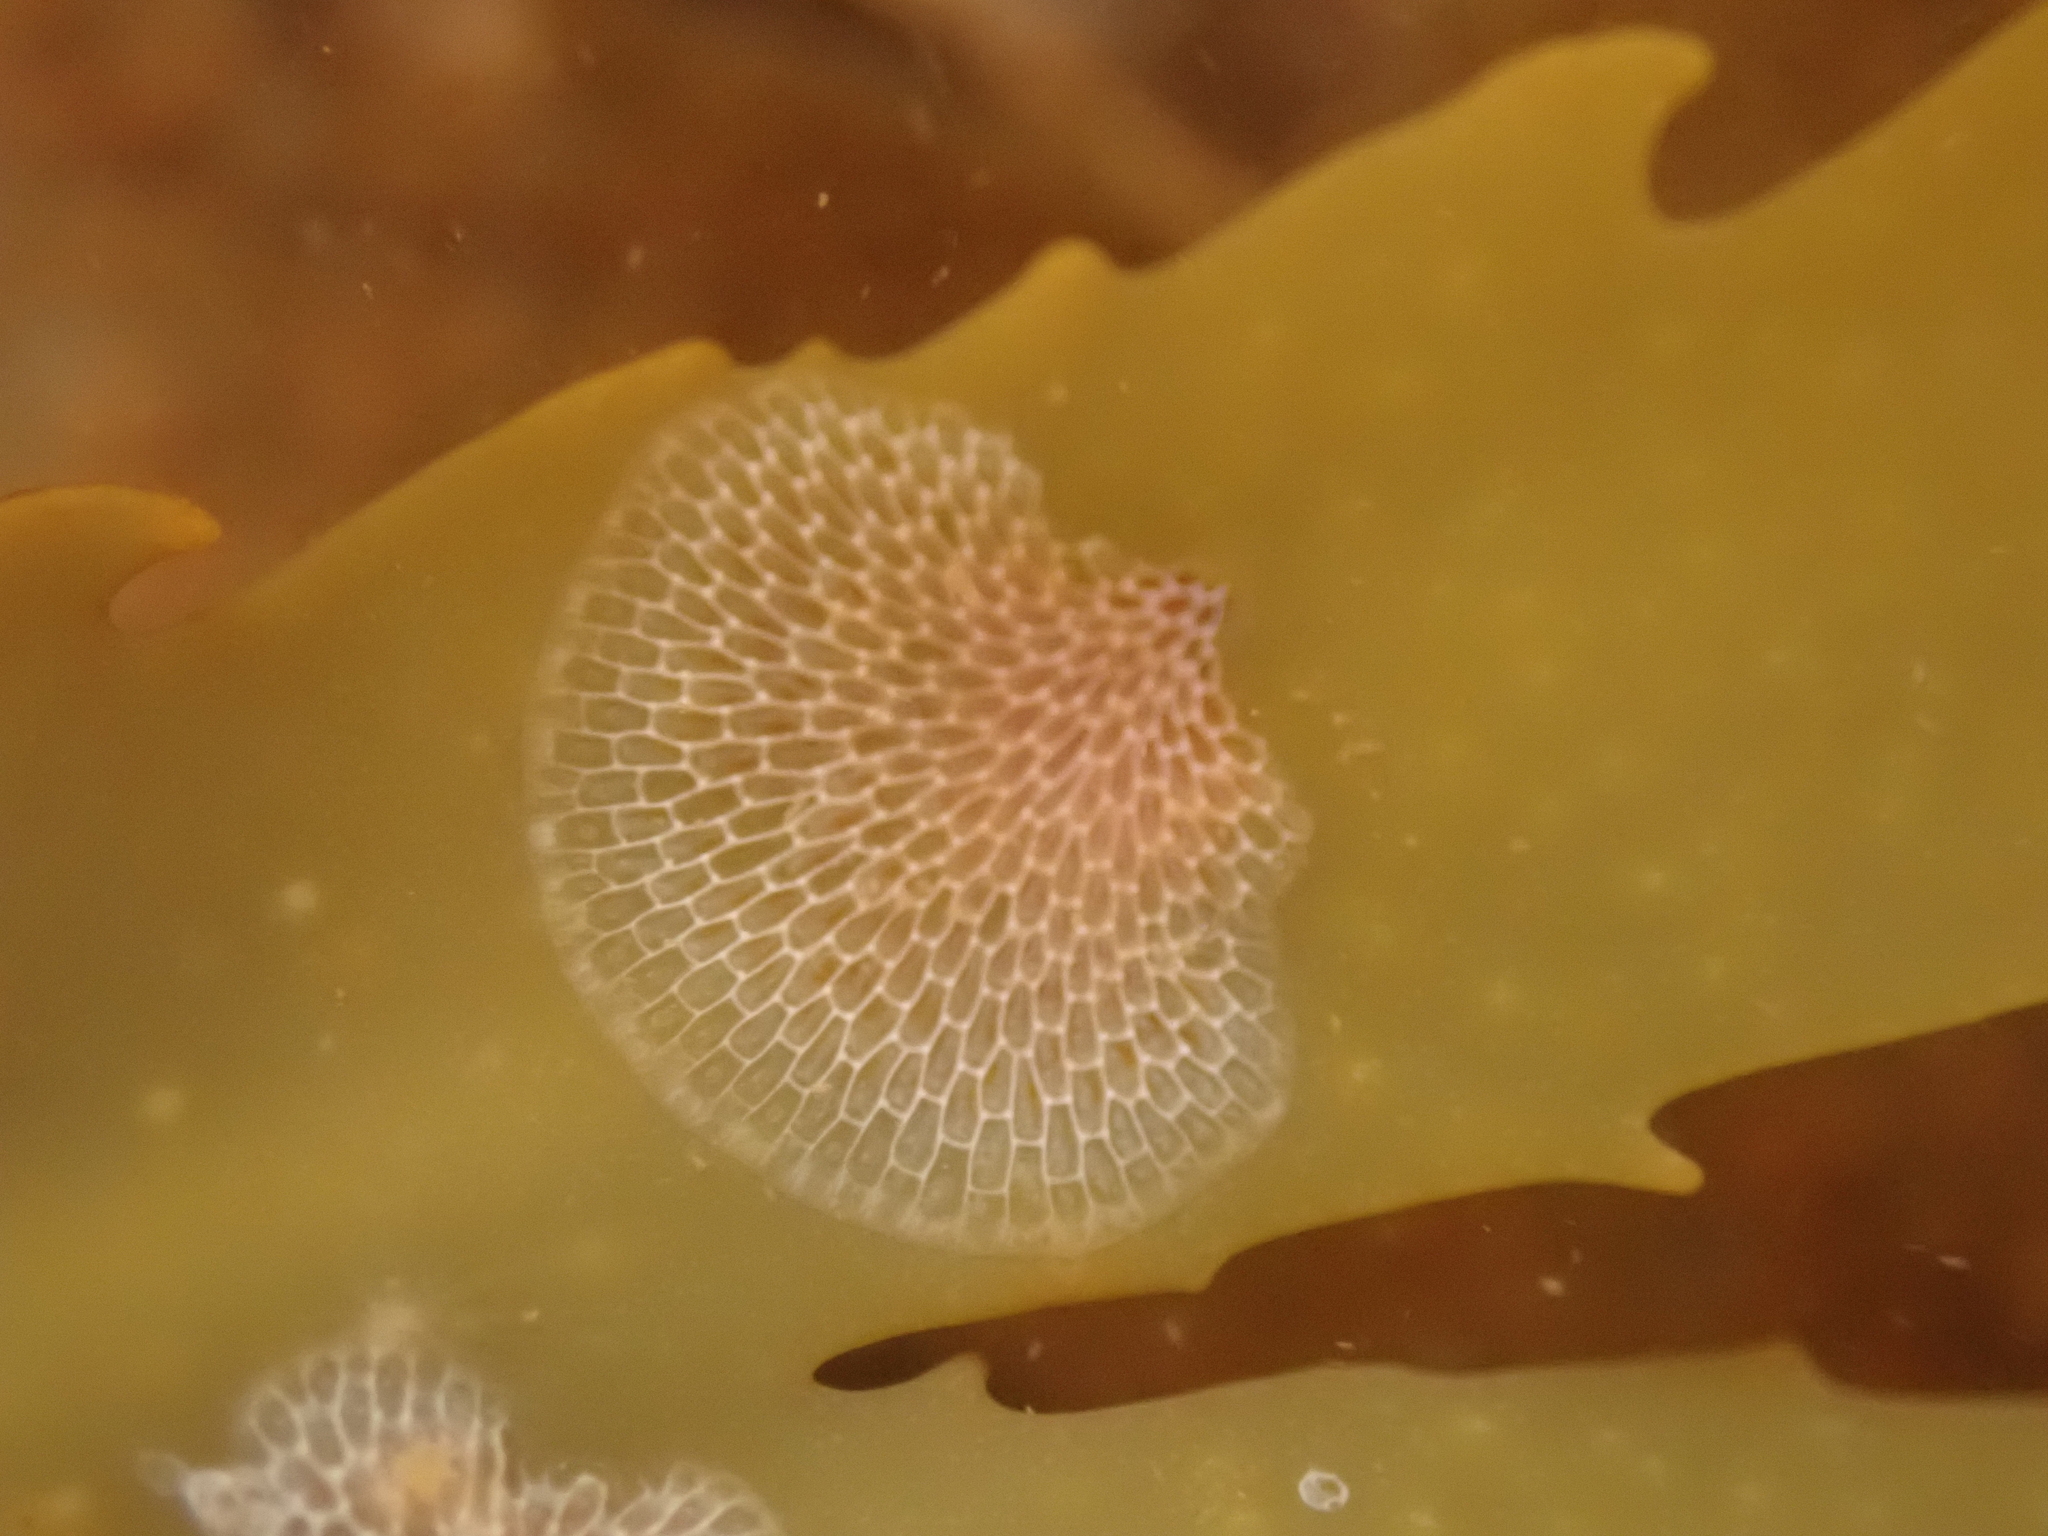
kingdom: Animalia
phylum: Bryozoa
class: Gymnolaemata
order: Cheilostomatida
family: Membraniporidae
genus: Membranipora
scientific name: Membranipora membranacea
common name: Sea mat
